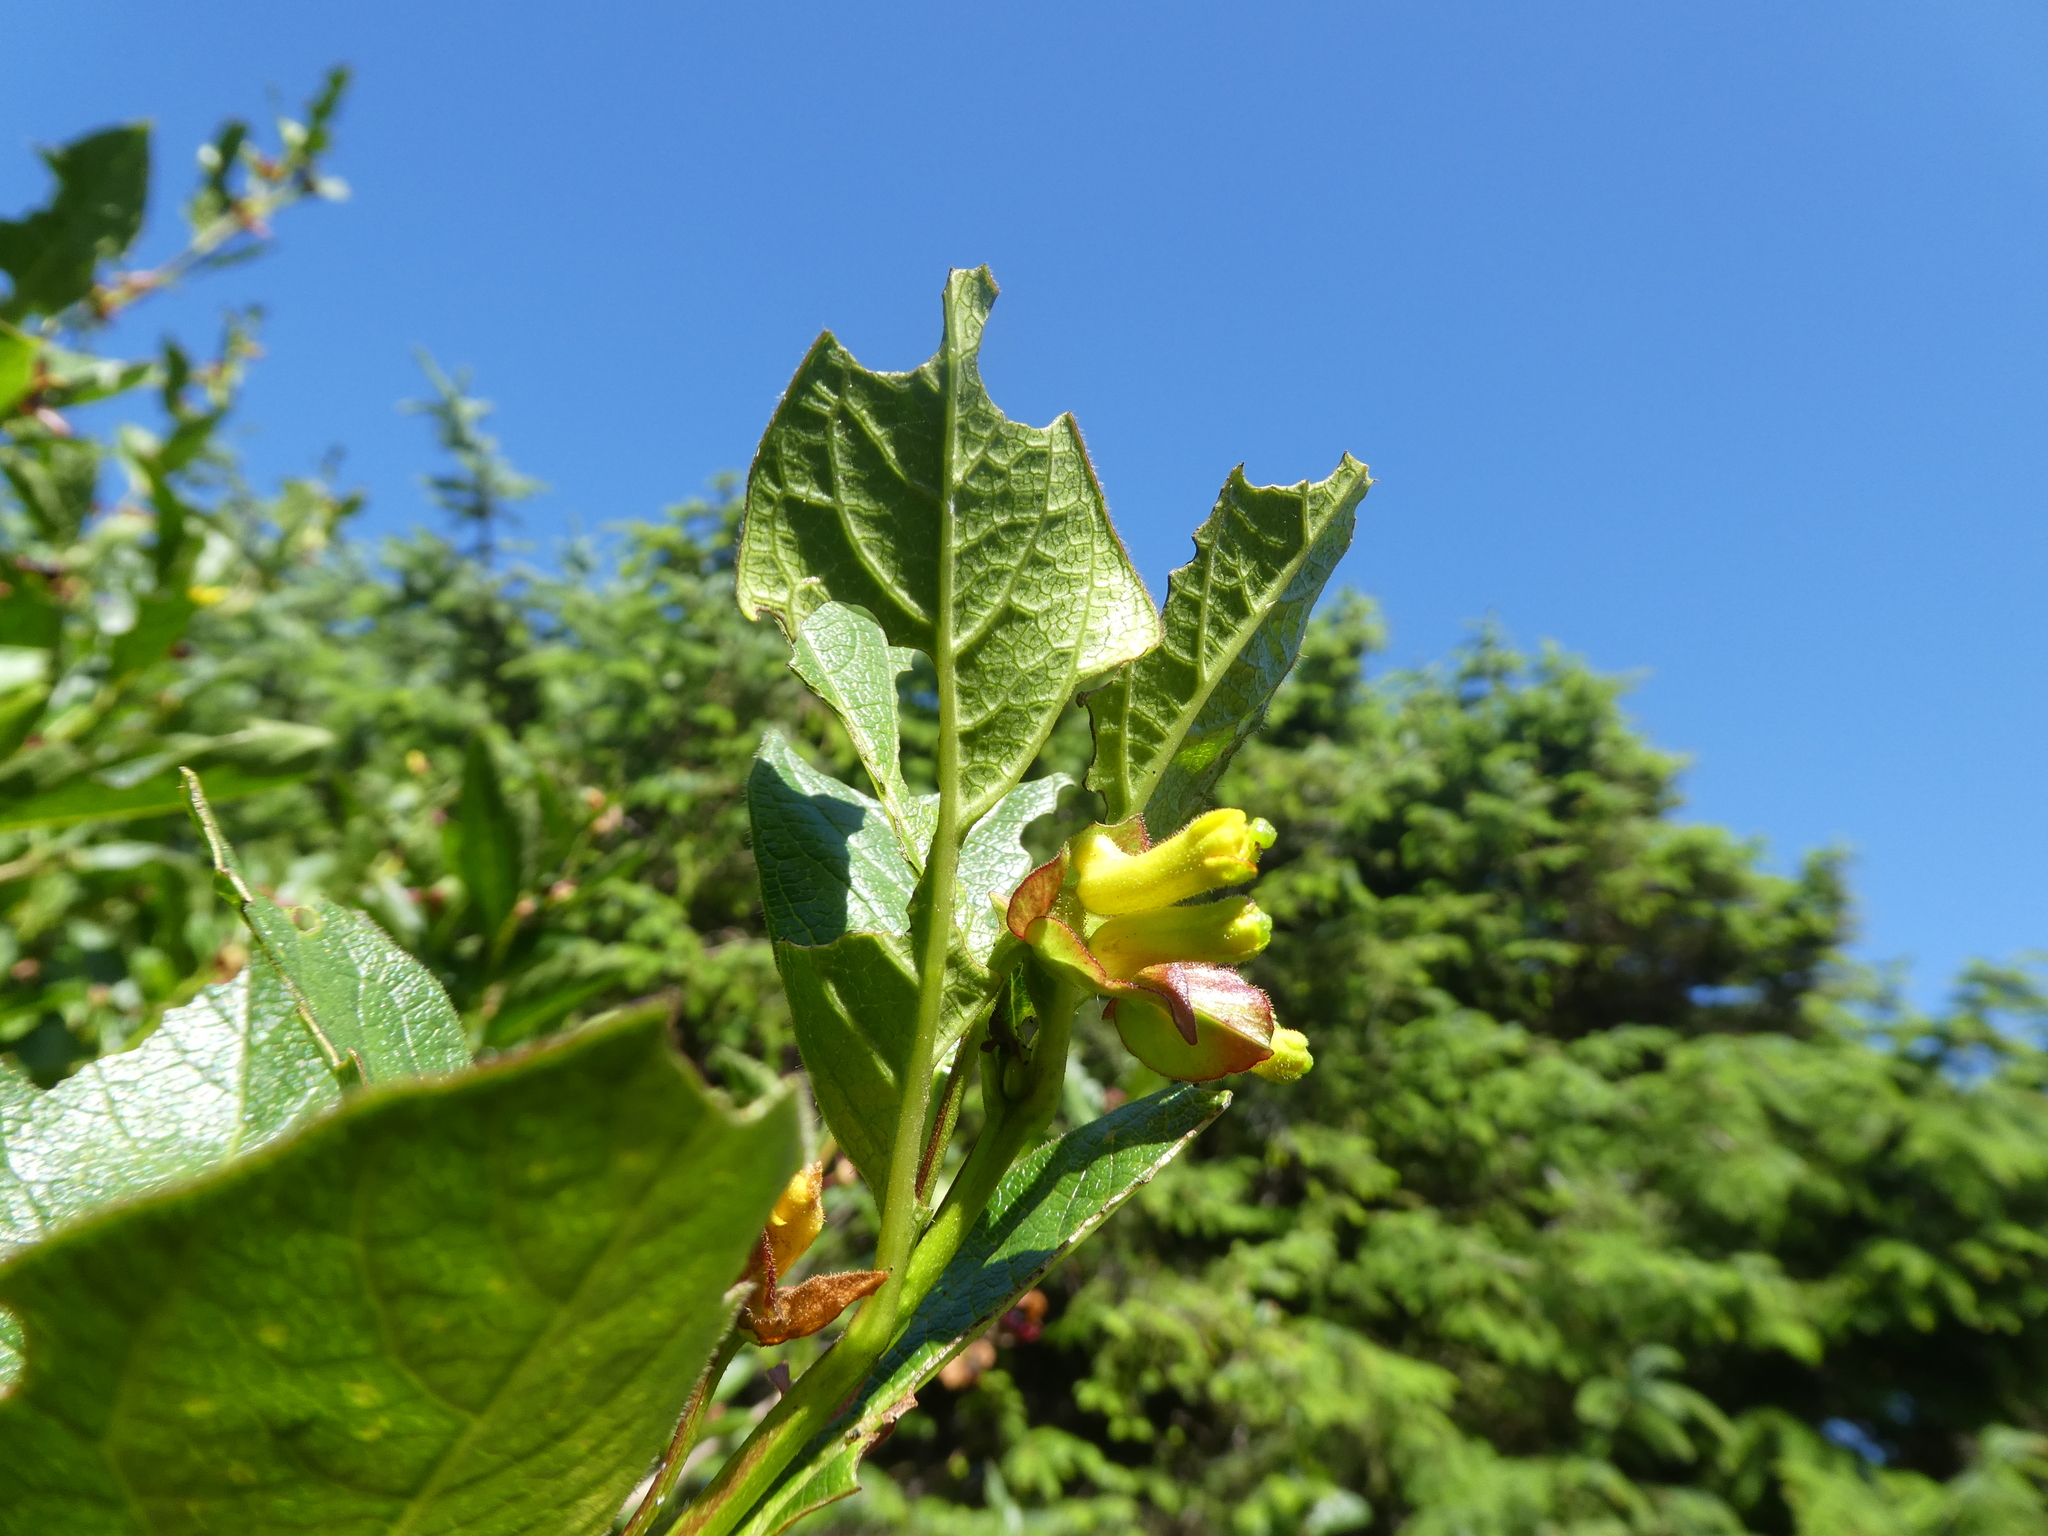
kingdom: Plantae
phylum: Tracheophyta
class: Magnoliopsida
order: Dipsacales
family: Caprifoliaceae
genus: Lonicera
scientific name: Lonicera involucrata
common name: Californian honeysuckle
